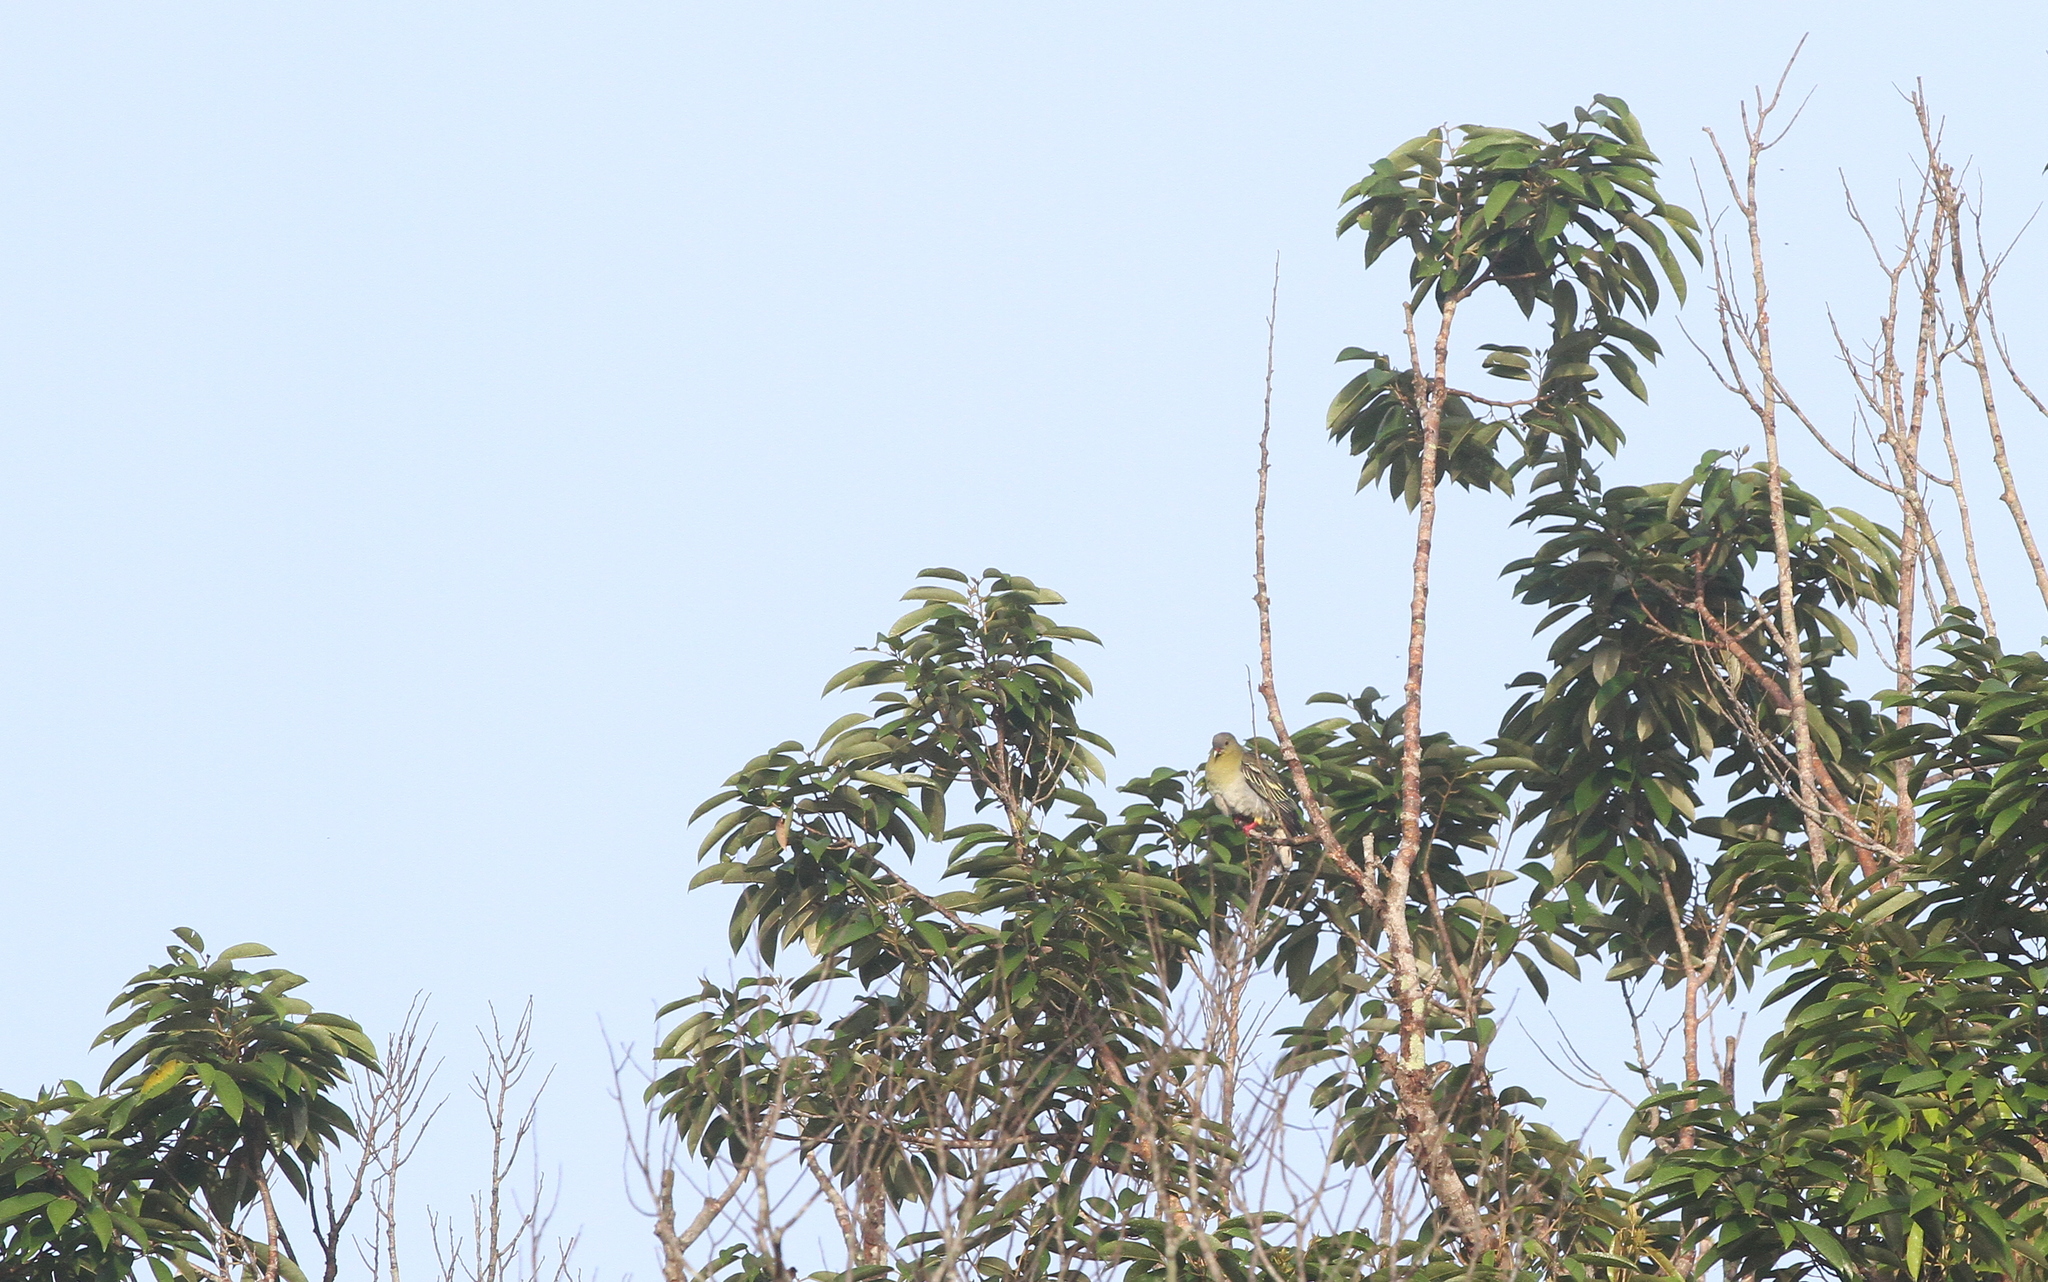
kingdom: Animalia
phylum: Chordata
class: Aves
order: Columbiformes
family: Columbidae
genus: Treron
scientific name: Treron fulvicollis
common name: Cinnamon-headed green pigeon
